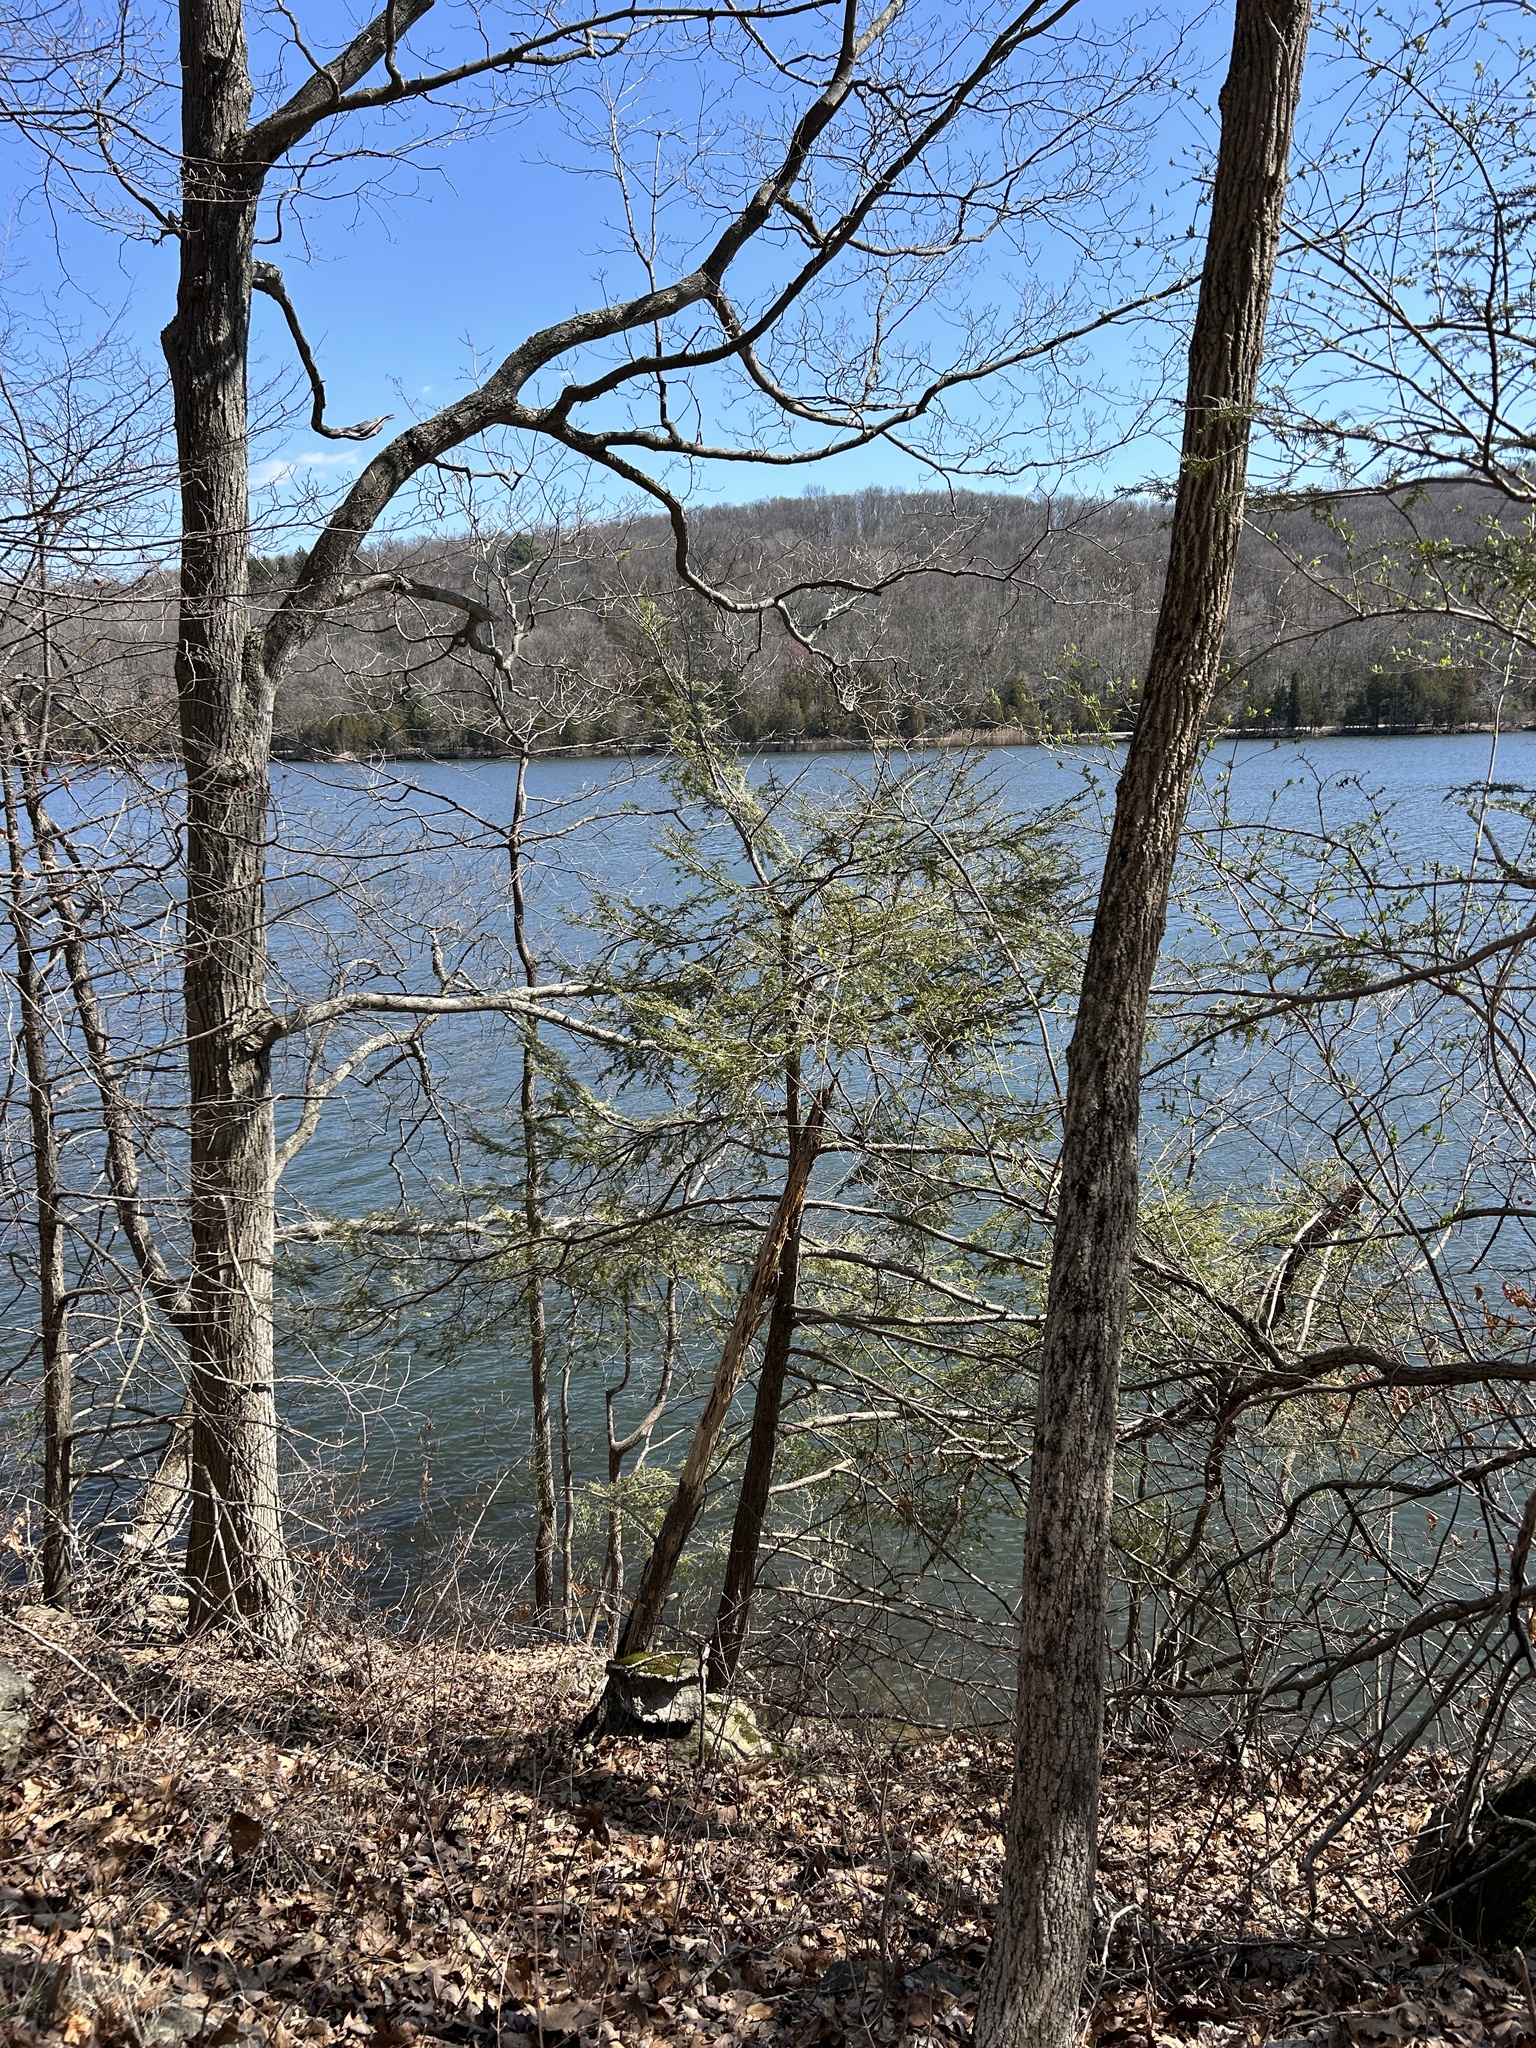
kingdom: Plantae
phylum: Tracheophyta
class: Pinopsida
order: Pinales
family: Pinaceae
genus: Tsuga
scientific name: Tsuga canadensis
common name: Eastern hemlock
